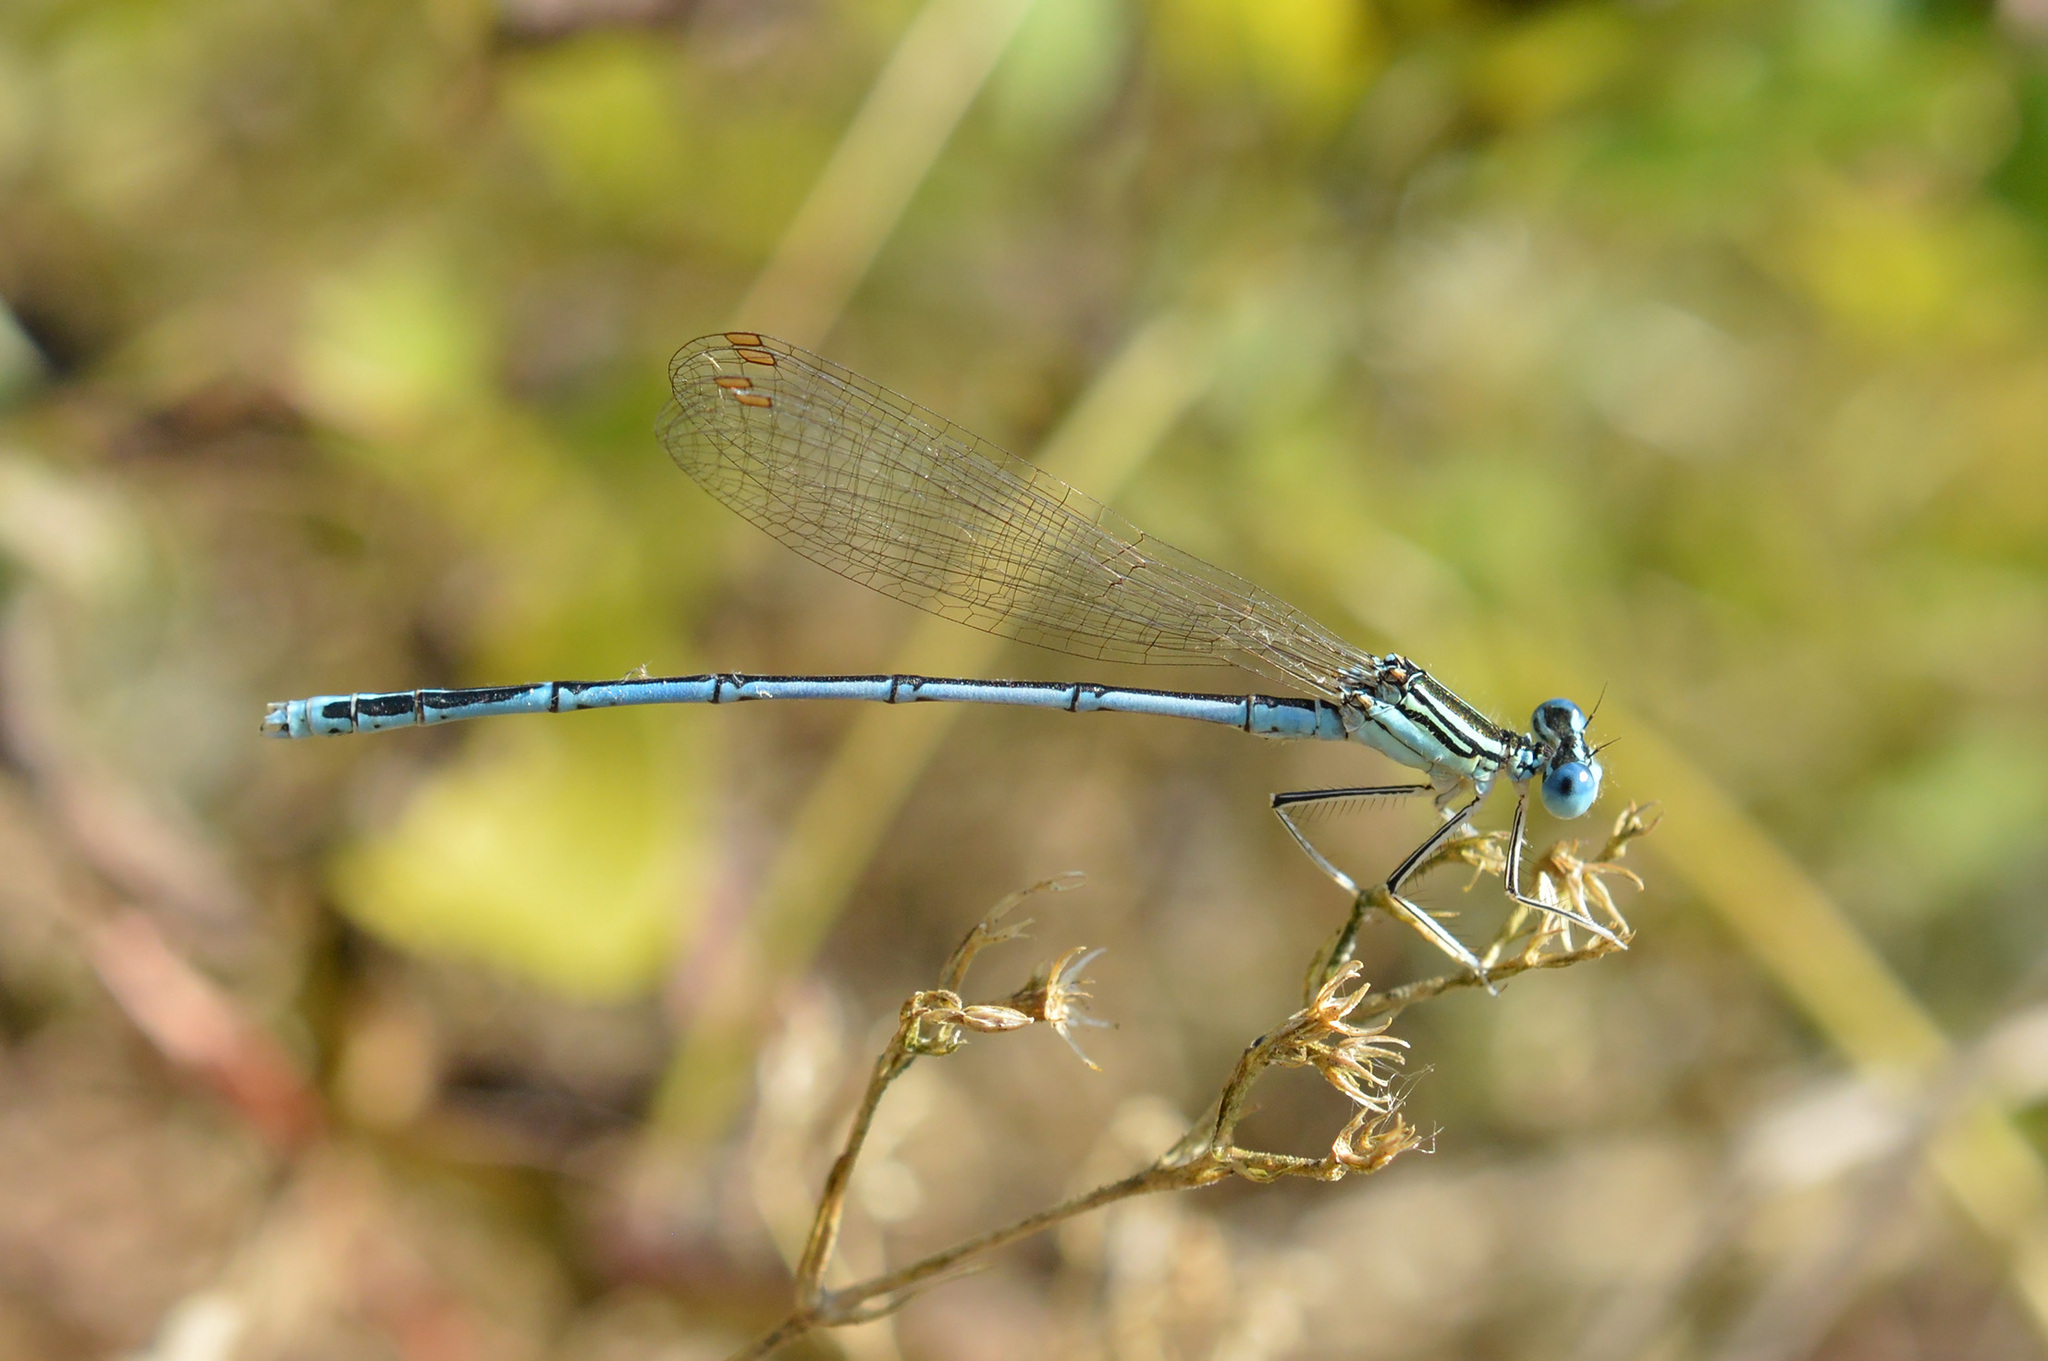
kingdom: Animalia
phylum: Arthropoda
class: Insecta
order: Odonata
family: Platycnemididae
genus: Platycnemis
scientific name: Platycnemis pennipes
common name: White-legged damselfly
